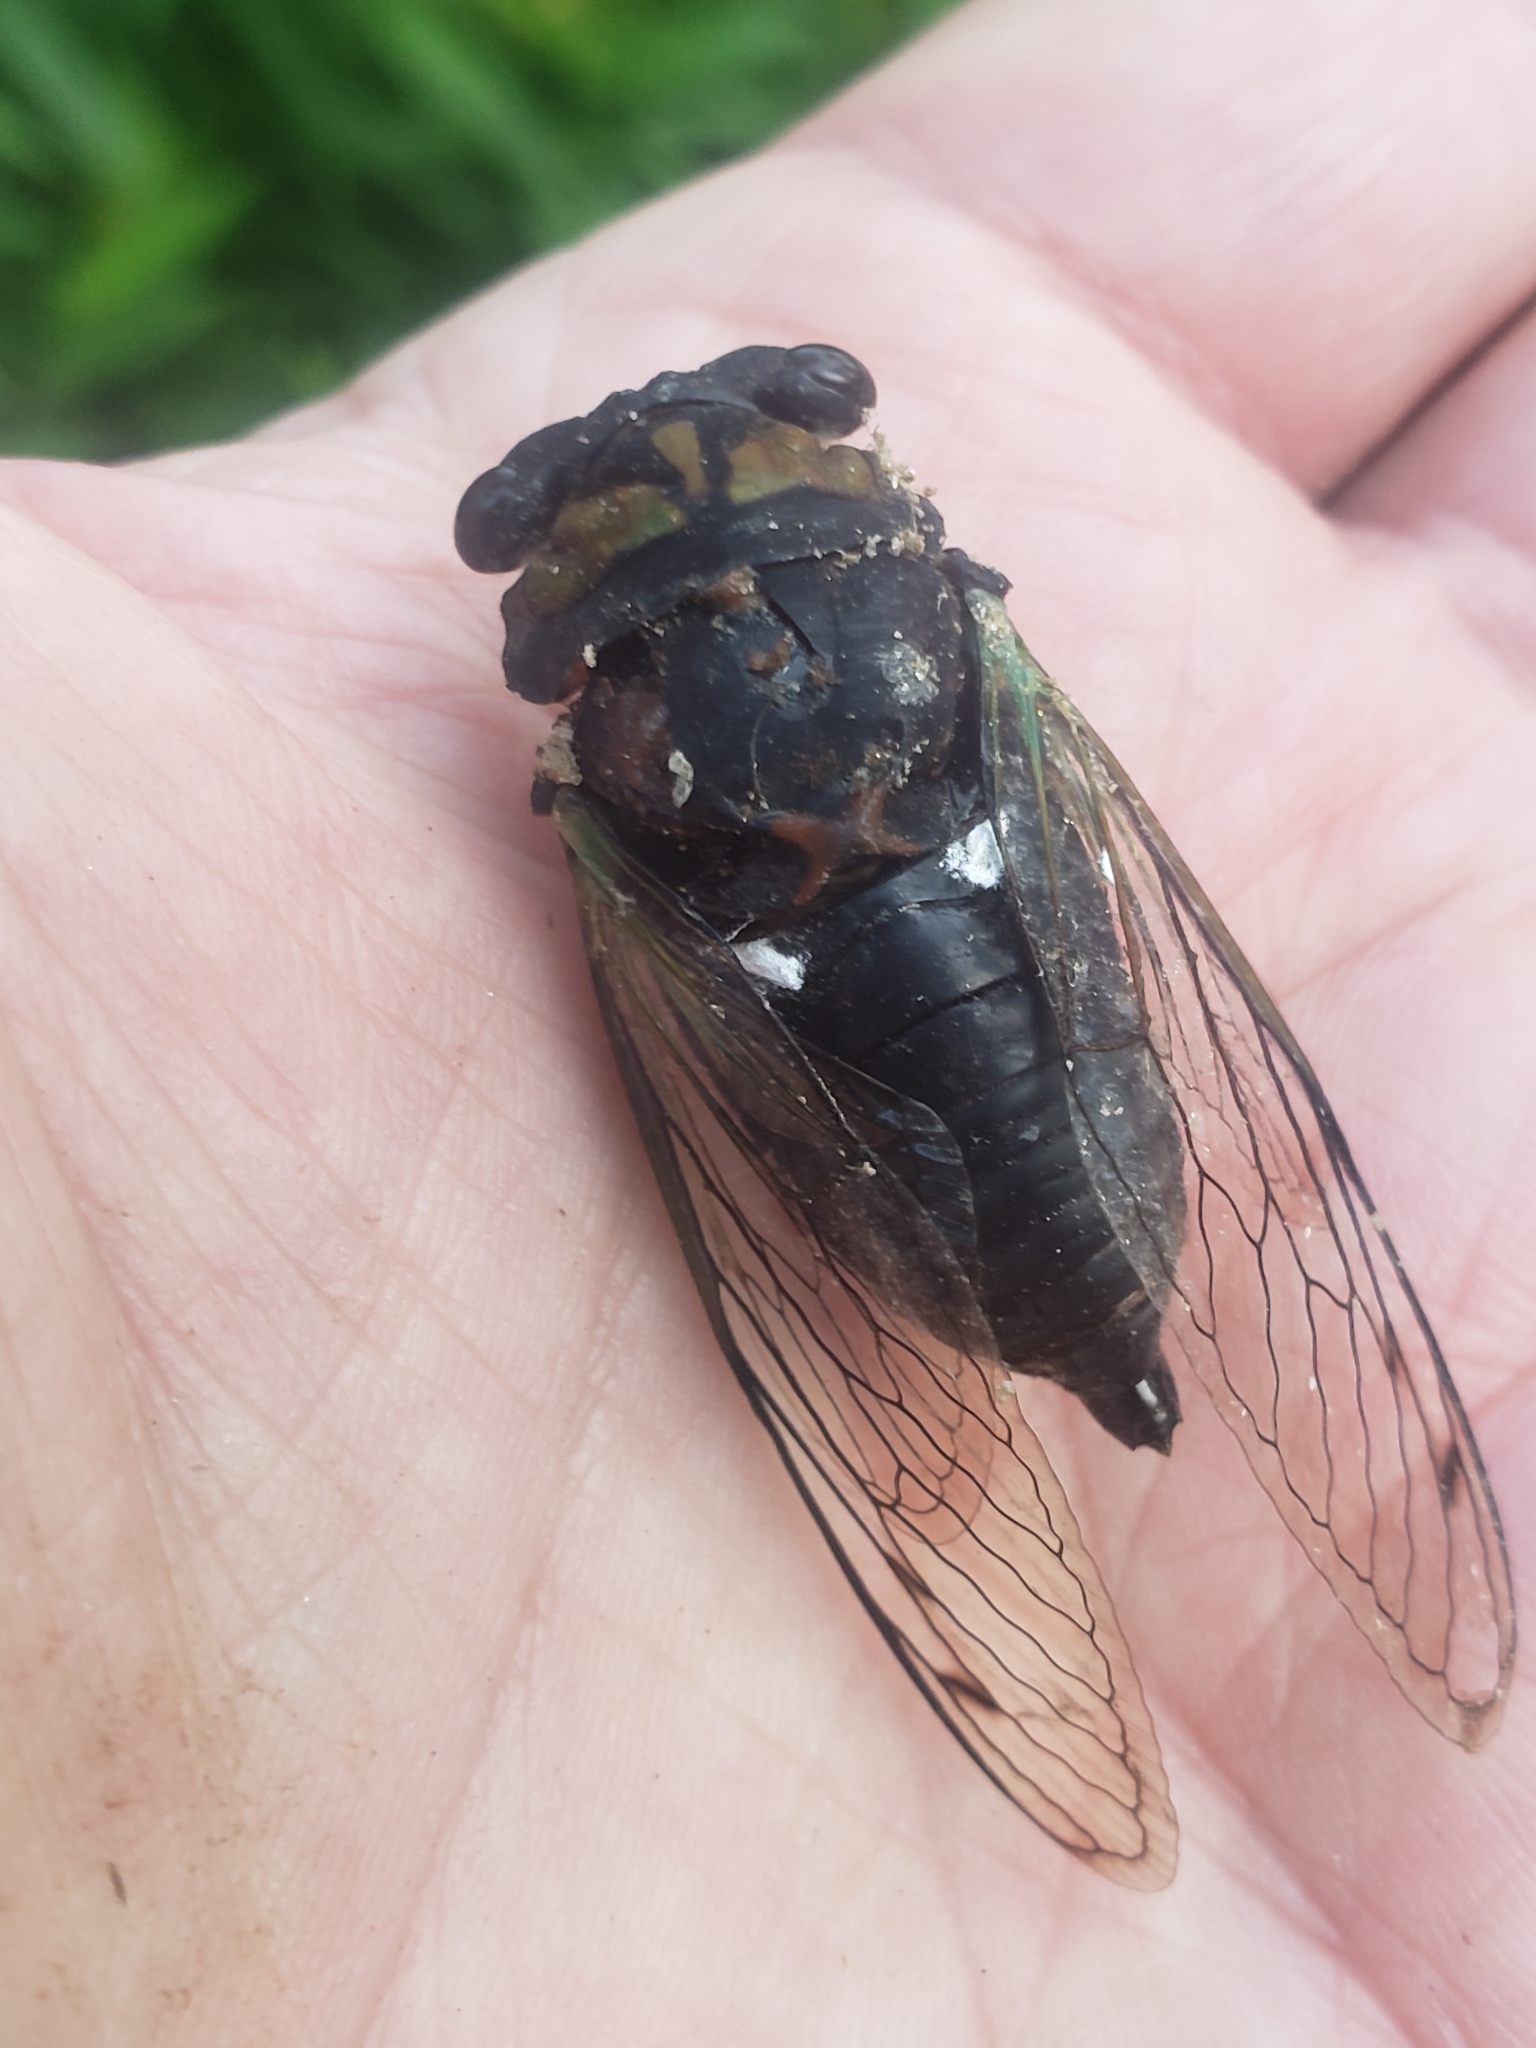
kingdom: Animalia
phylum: Arthropoda
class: Insecta
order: Hemiptera
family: Cicadidae
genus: Neotibicen
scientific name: Neotibicen tibicen
